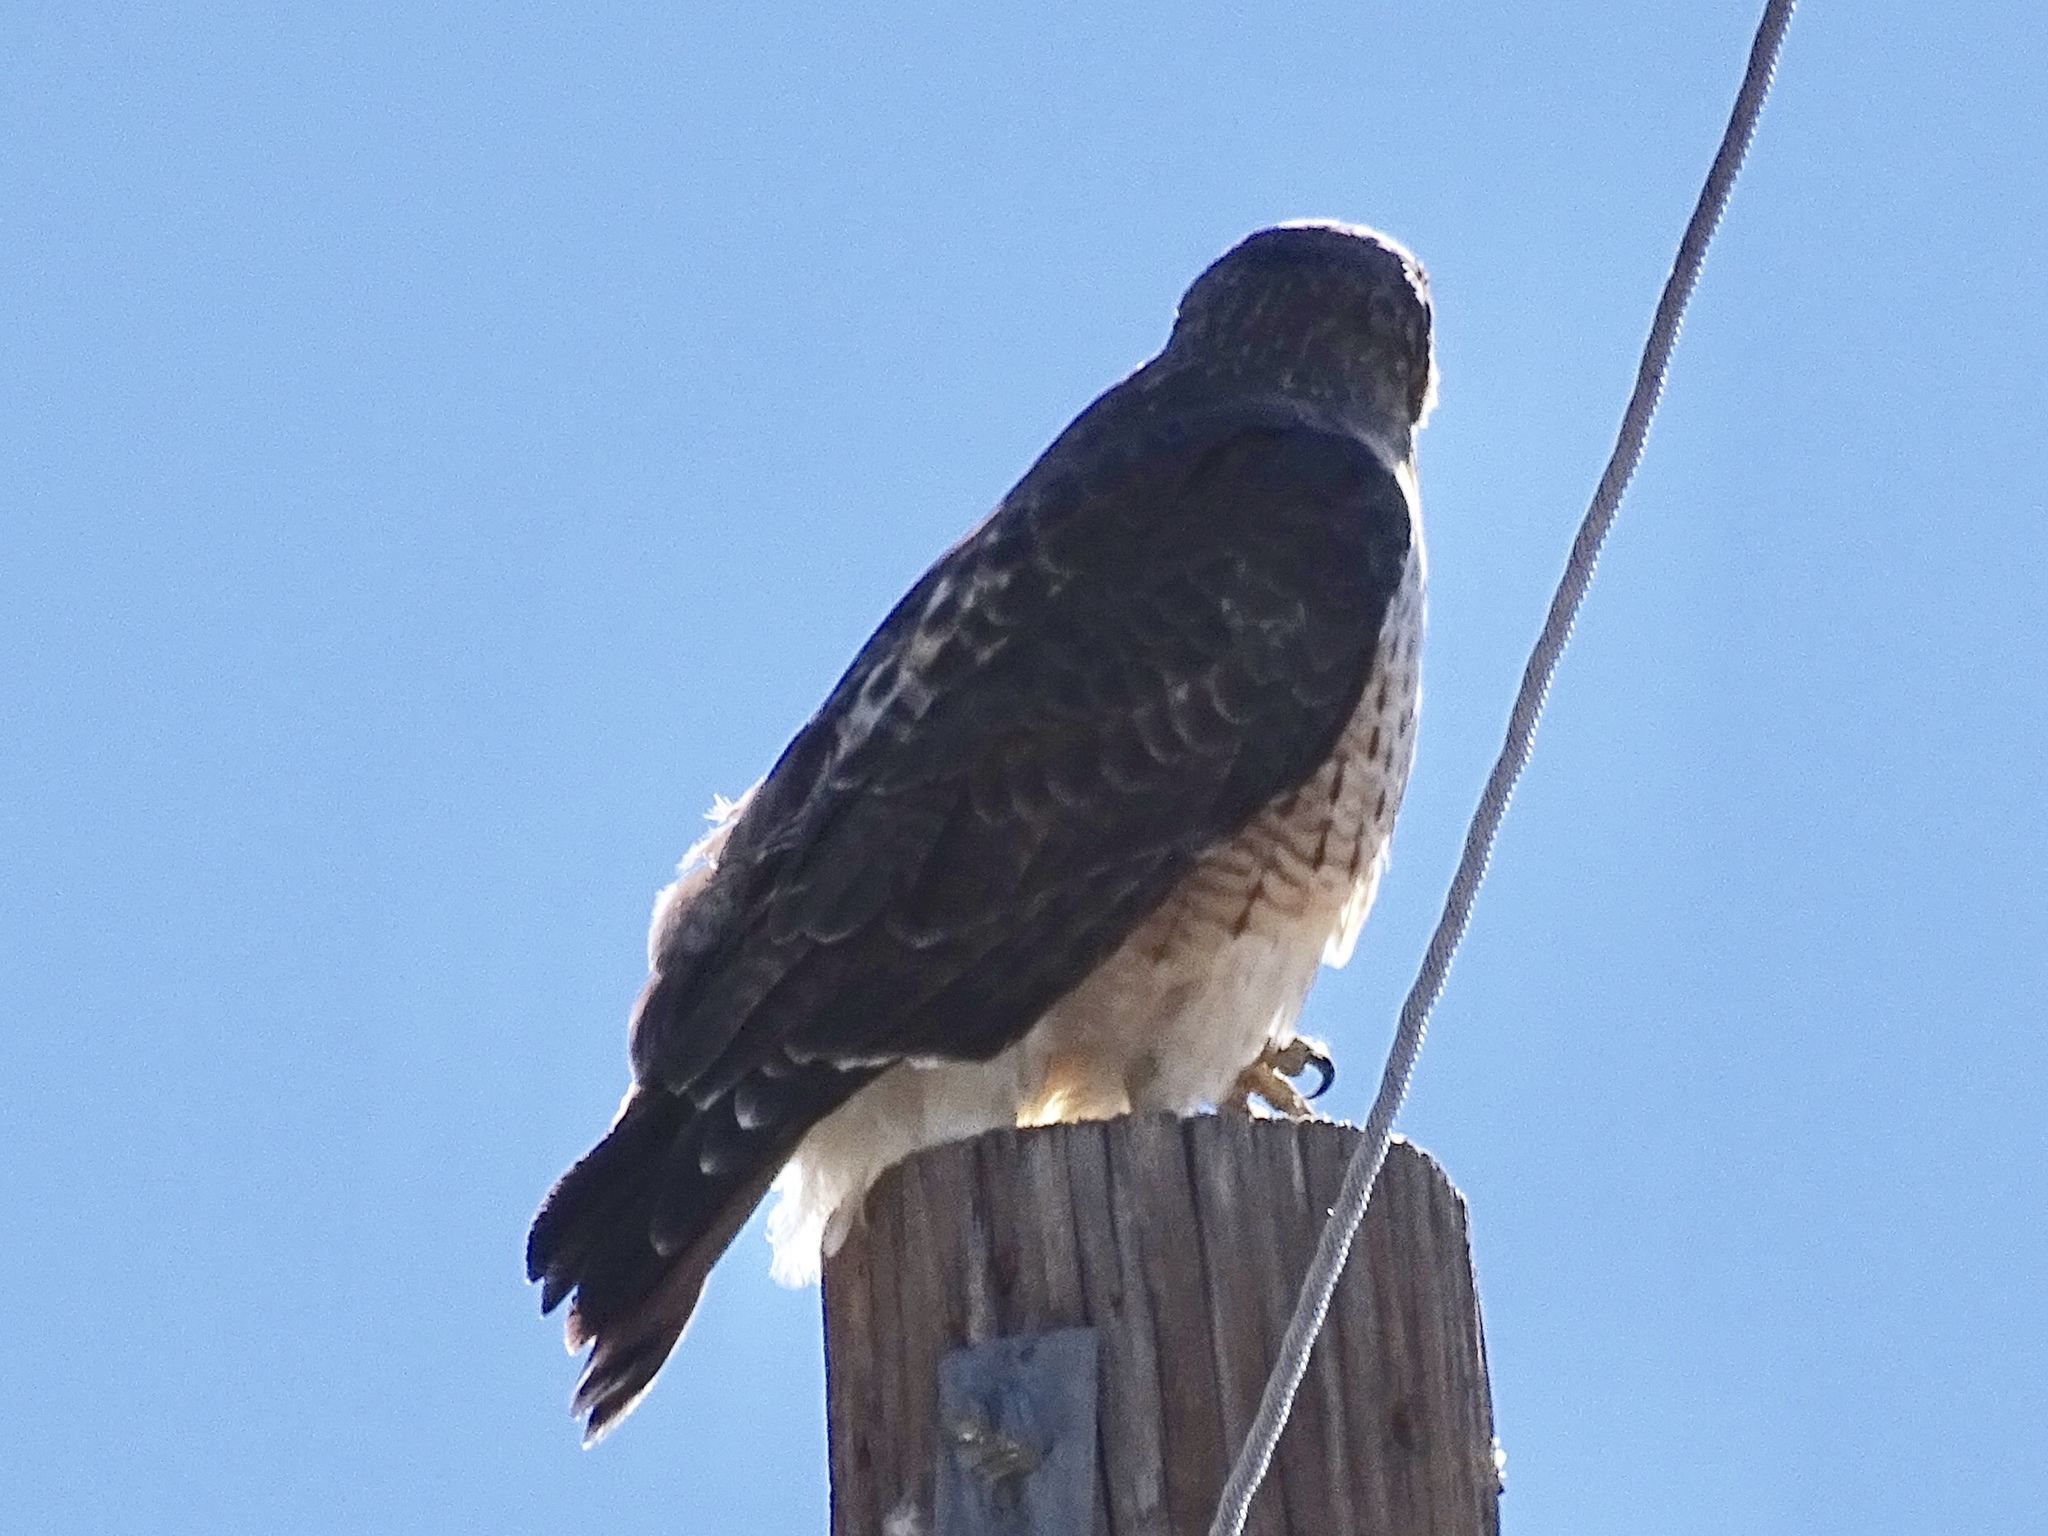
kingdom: Animalia
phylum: Chordata
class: Aves
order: Accipitriformes
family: Accipitridae
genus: Buteo
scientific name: Buteo jamaicensis
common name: Red-tailed hawk
